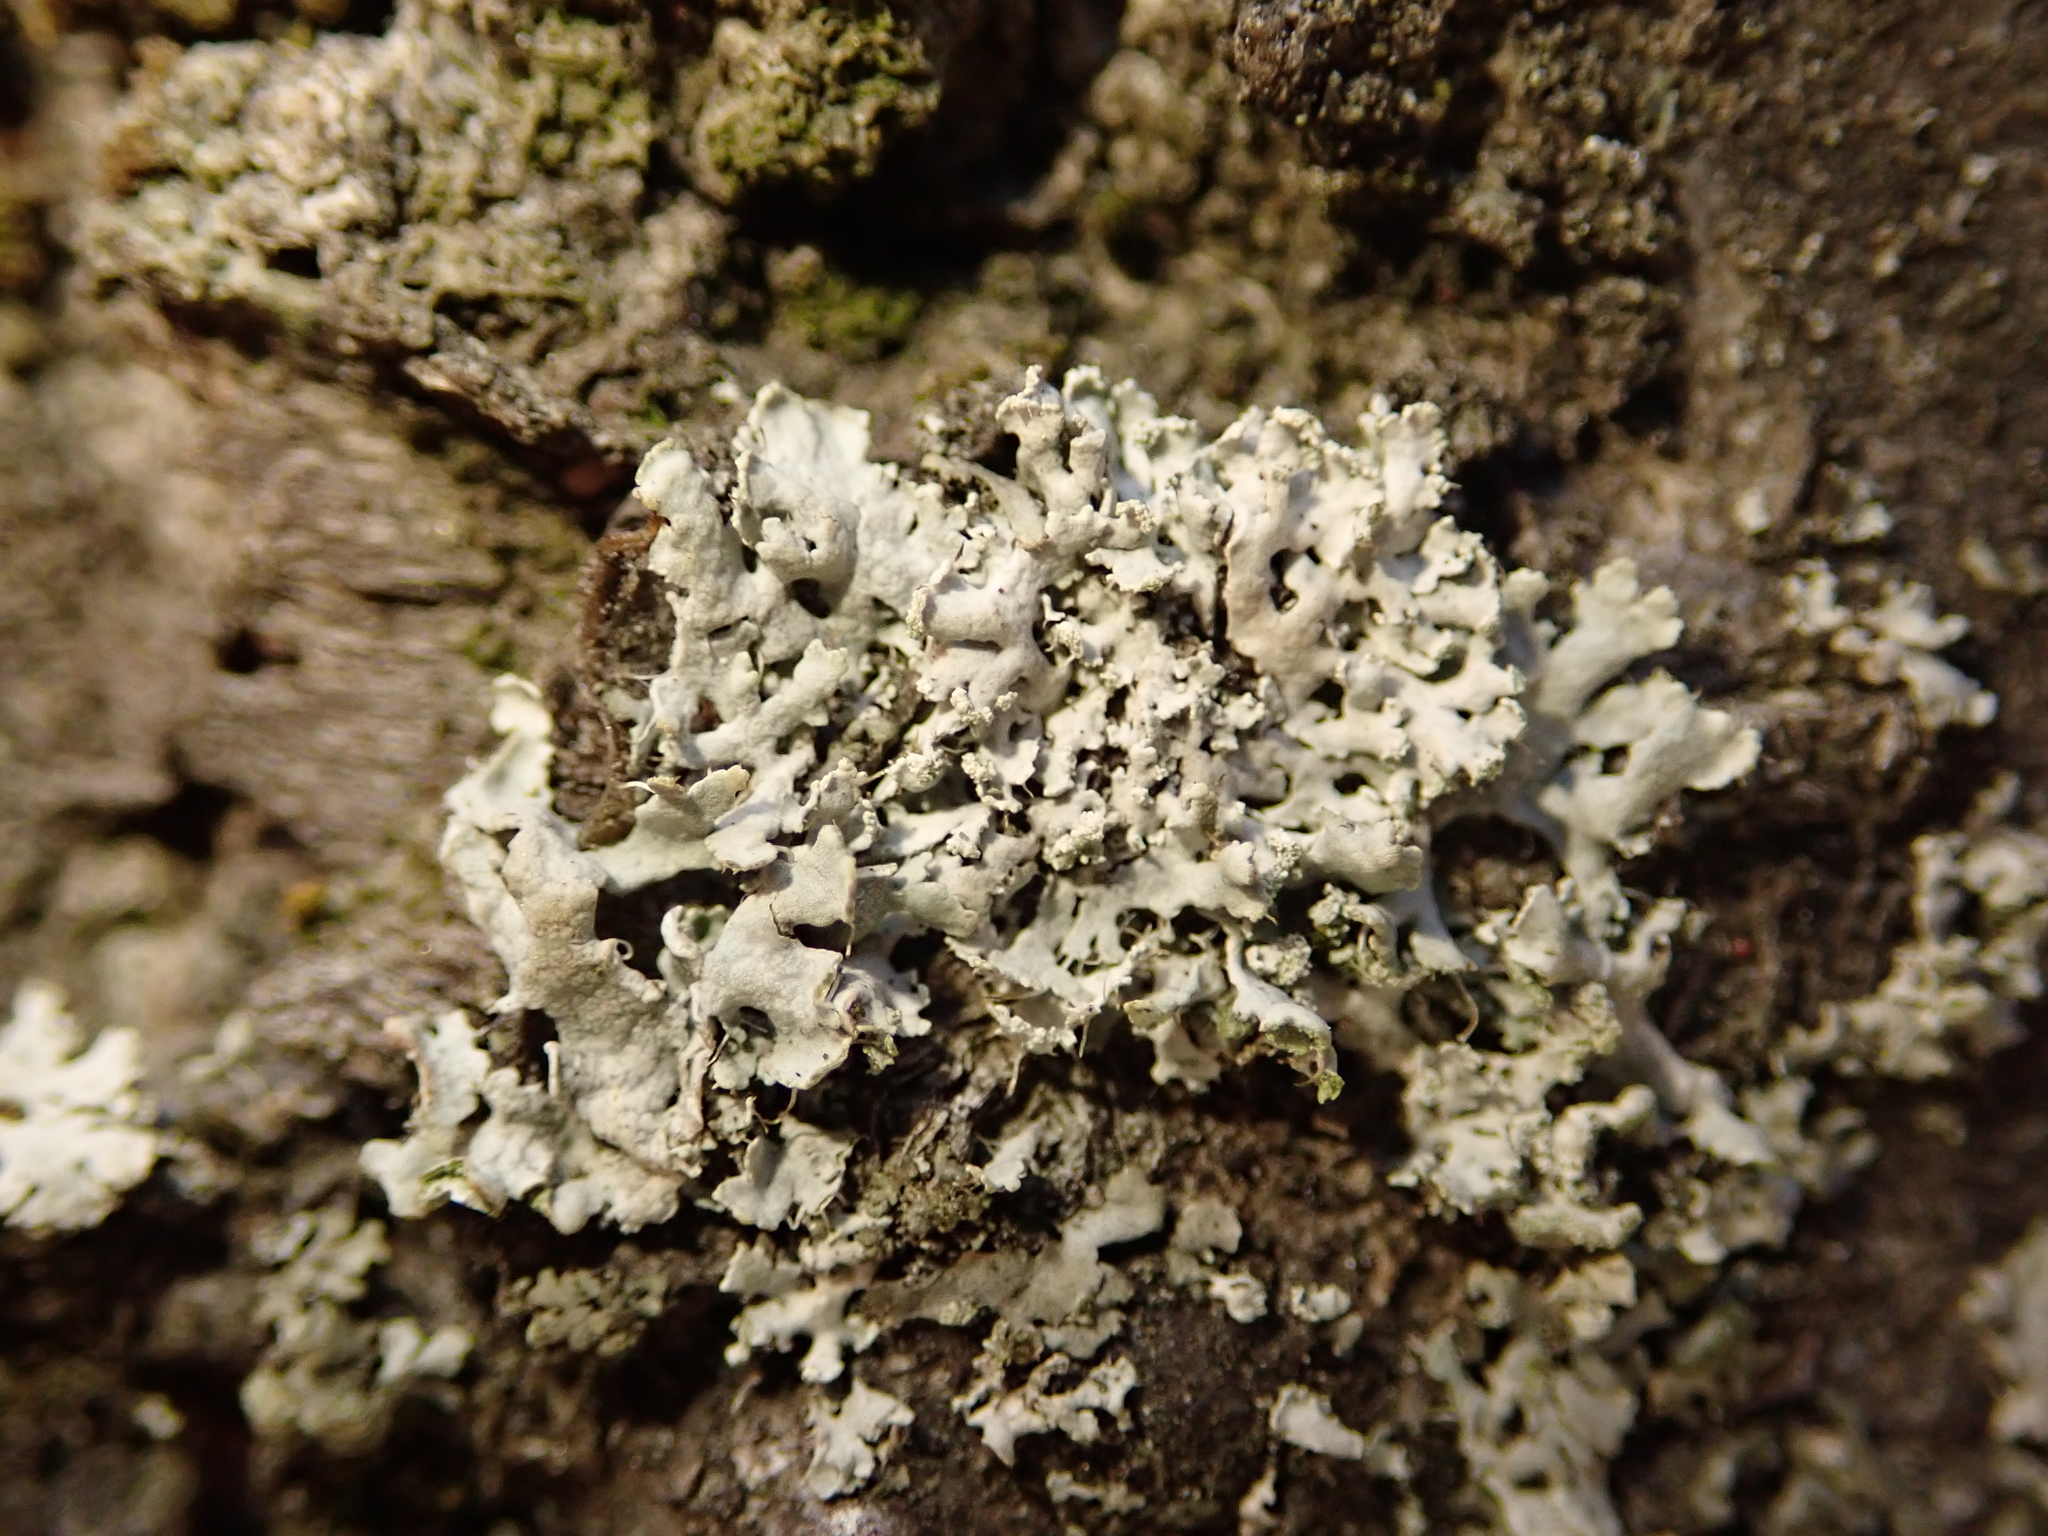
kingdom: Fungi
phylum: Ascomycota
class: Lecanoromycetes
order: Caliciales
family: Physciaceae
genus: Physcia
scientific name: Physcia tenella
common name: Fringed rosette lichen
